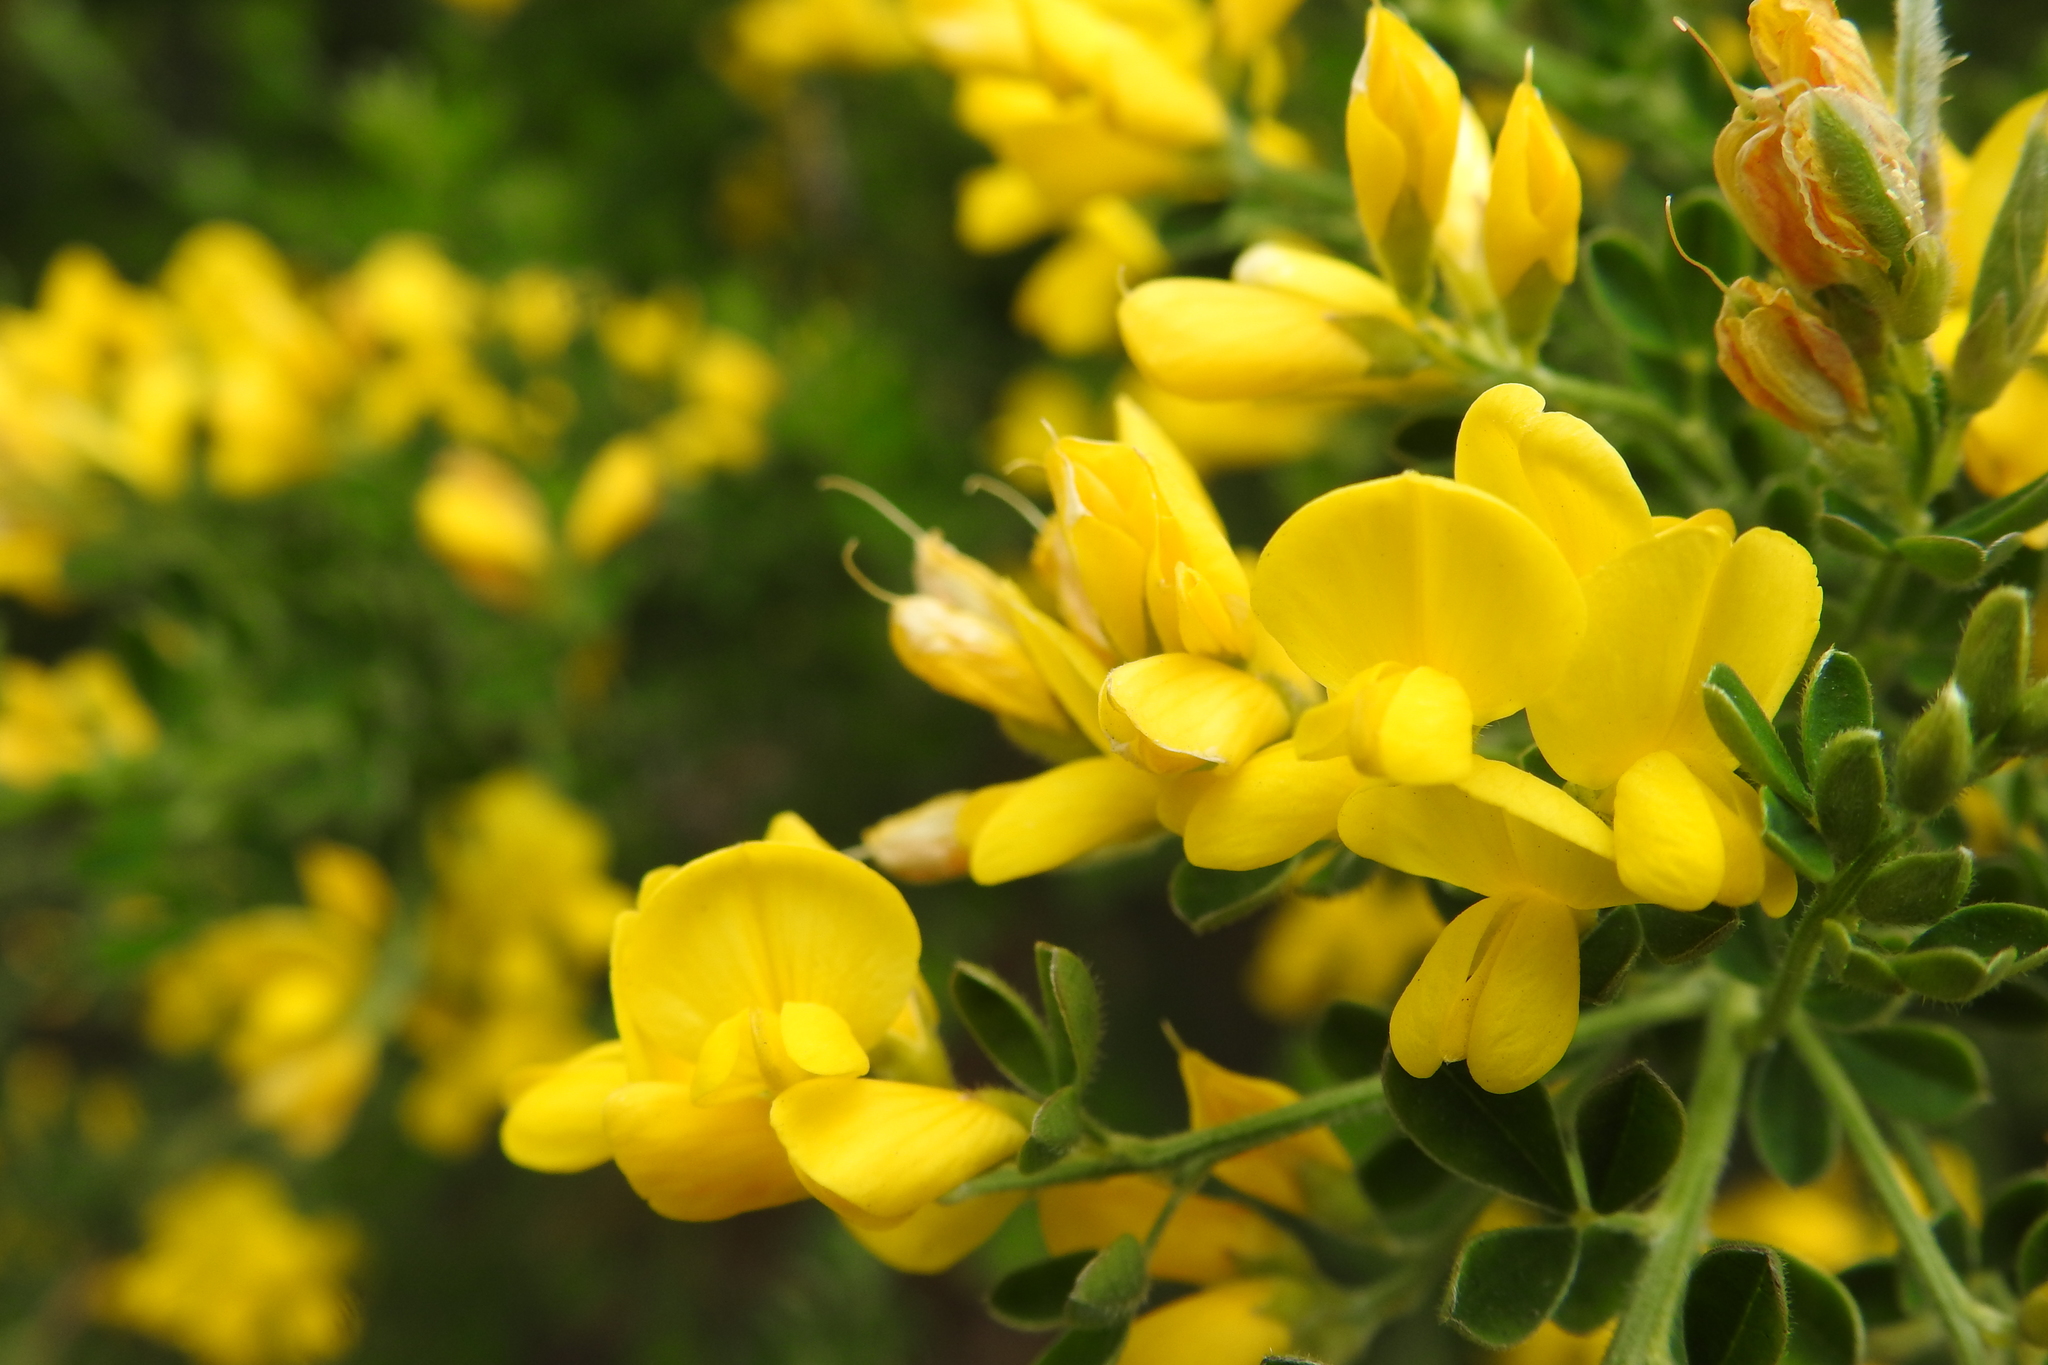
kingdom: Plantae
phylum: Tracheophyta
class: Magnoliopsida
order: Fabales
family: Fabaceae
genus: Genista
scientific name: Genista monspessulana
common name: Montpellier broom
